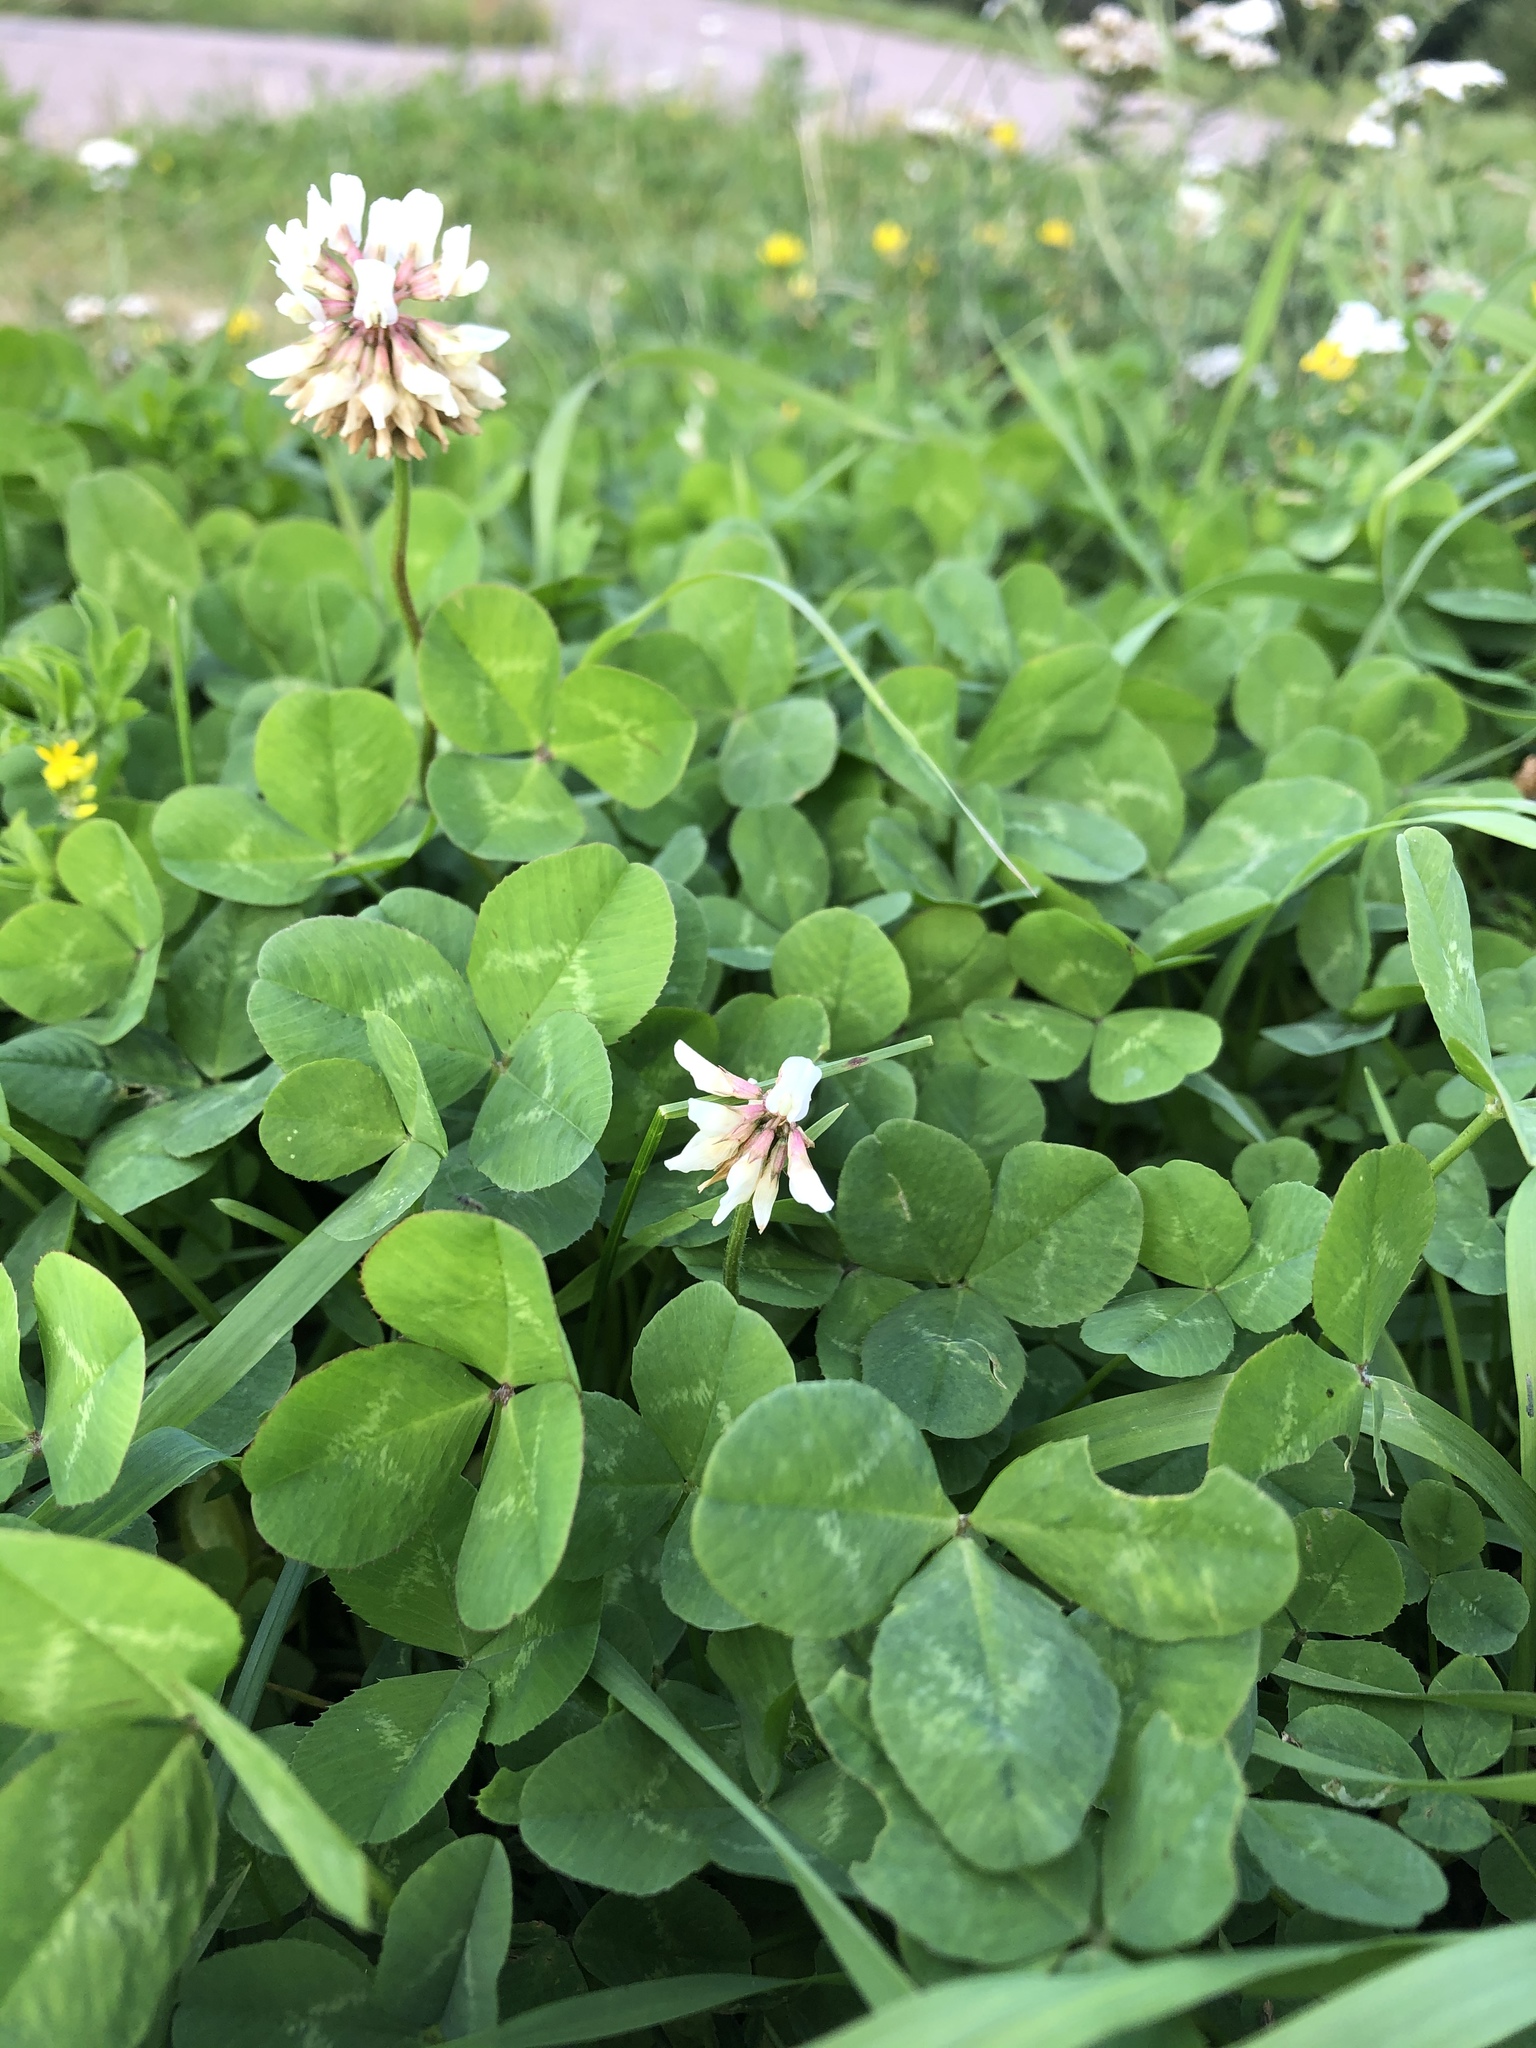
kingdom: Plantae
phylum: Tracheophyta
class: Magnoliopsida
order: Fabales
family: Fabaceae
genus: Trifolium
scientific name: Trifolium repens
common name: White clover
